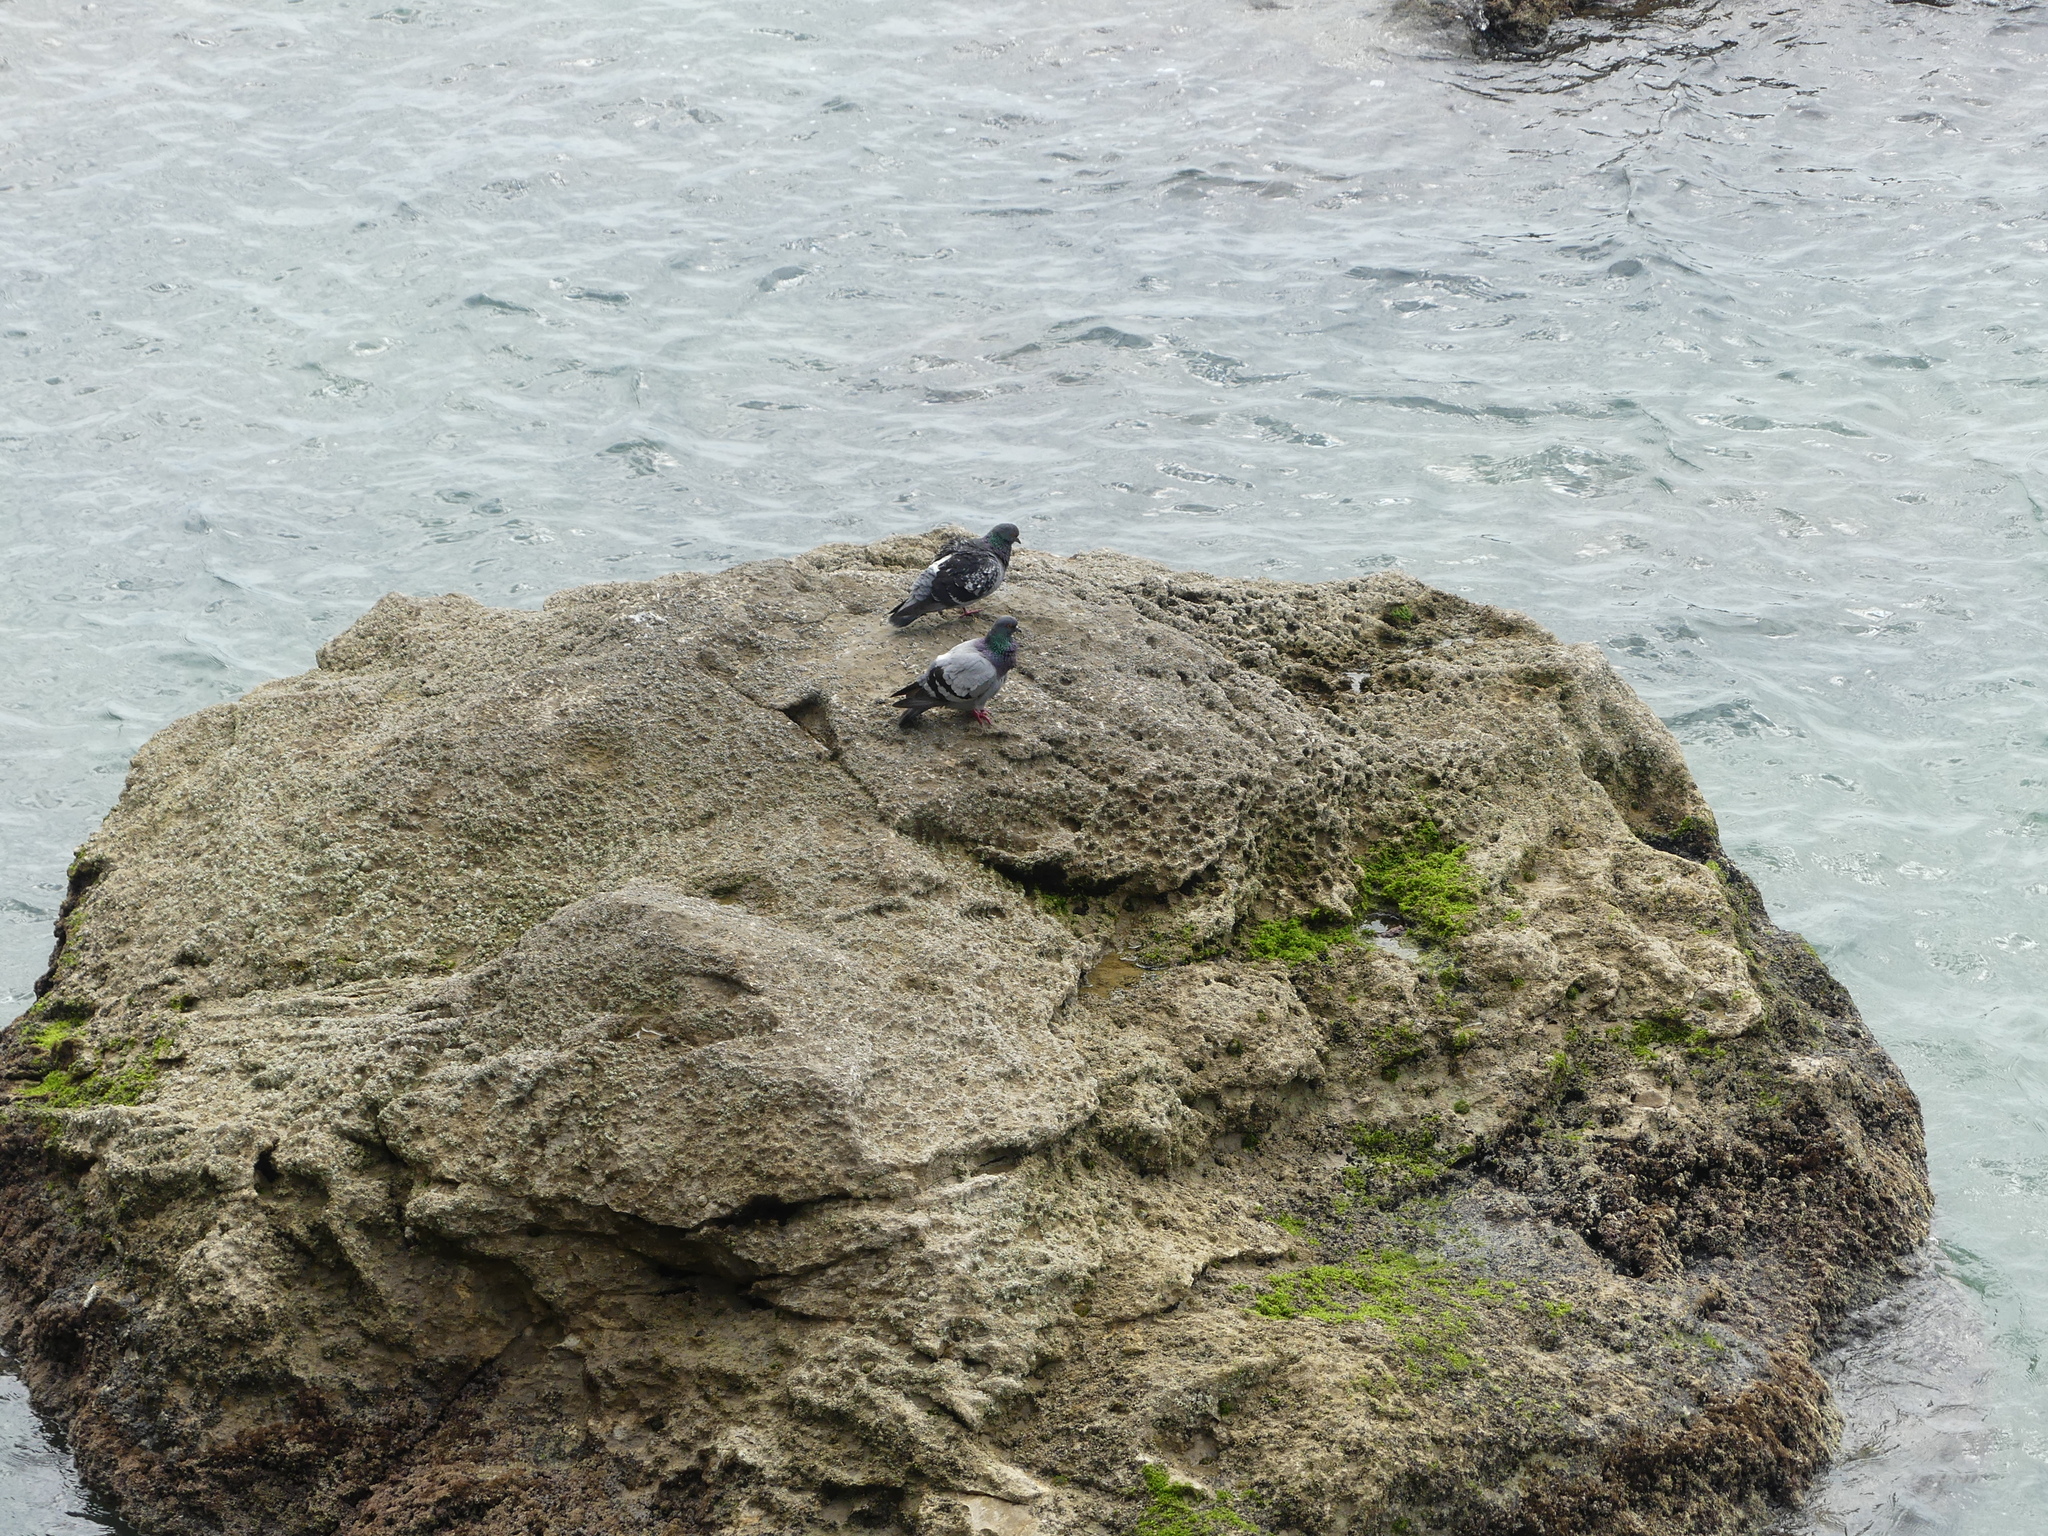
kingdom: Animalia
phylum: Chordata
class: Aves
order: Columbiformes
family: Columbidae
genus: Columba
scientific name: Columba livia
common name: Rock pigeon
